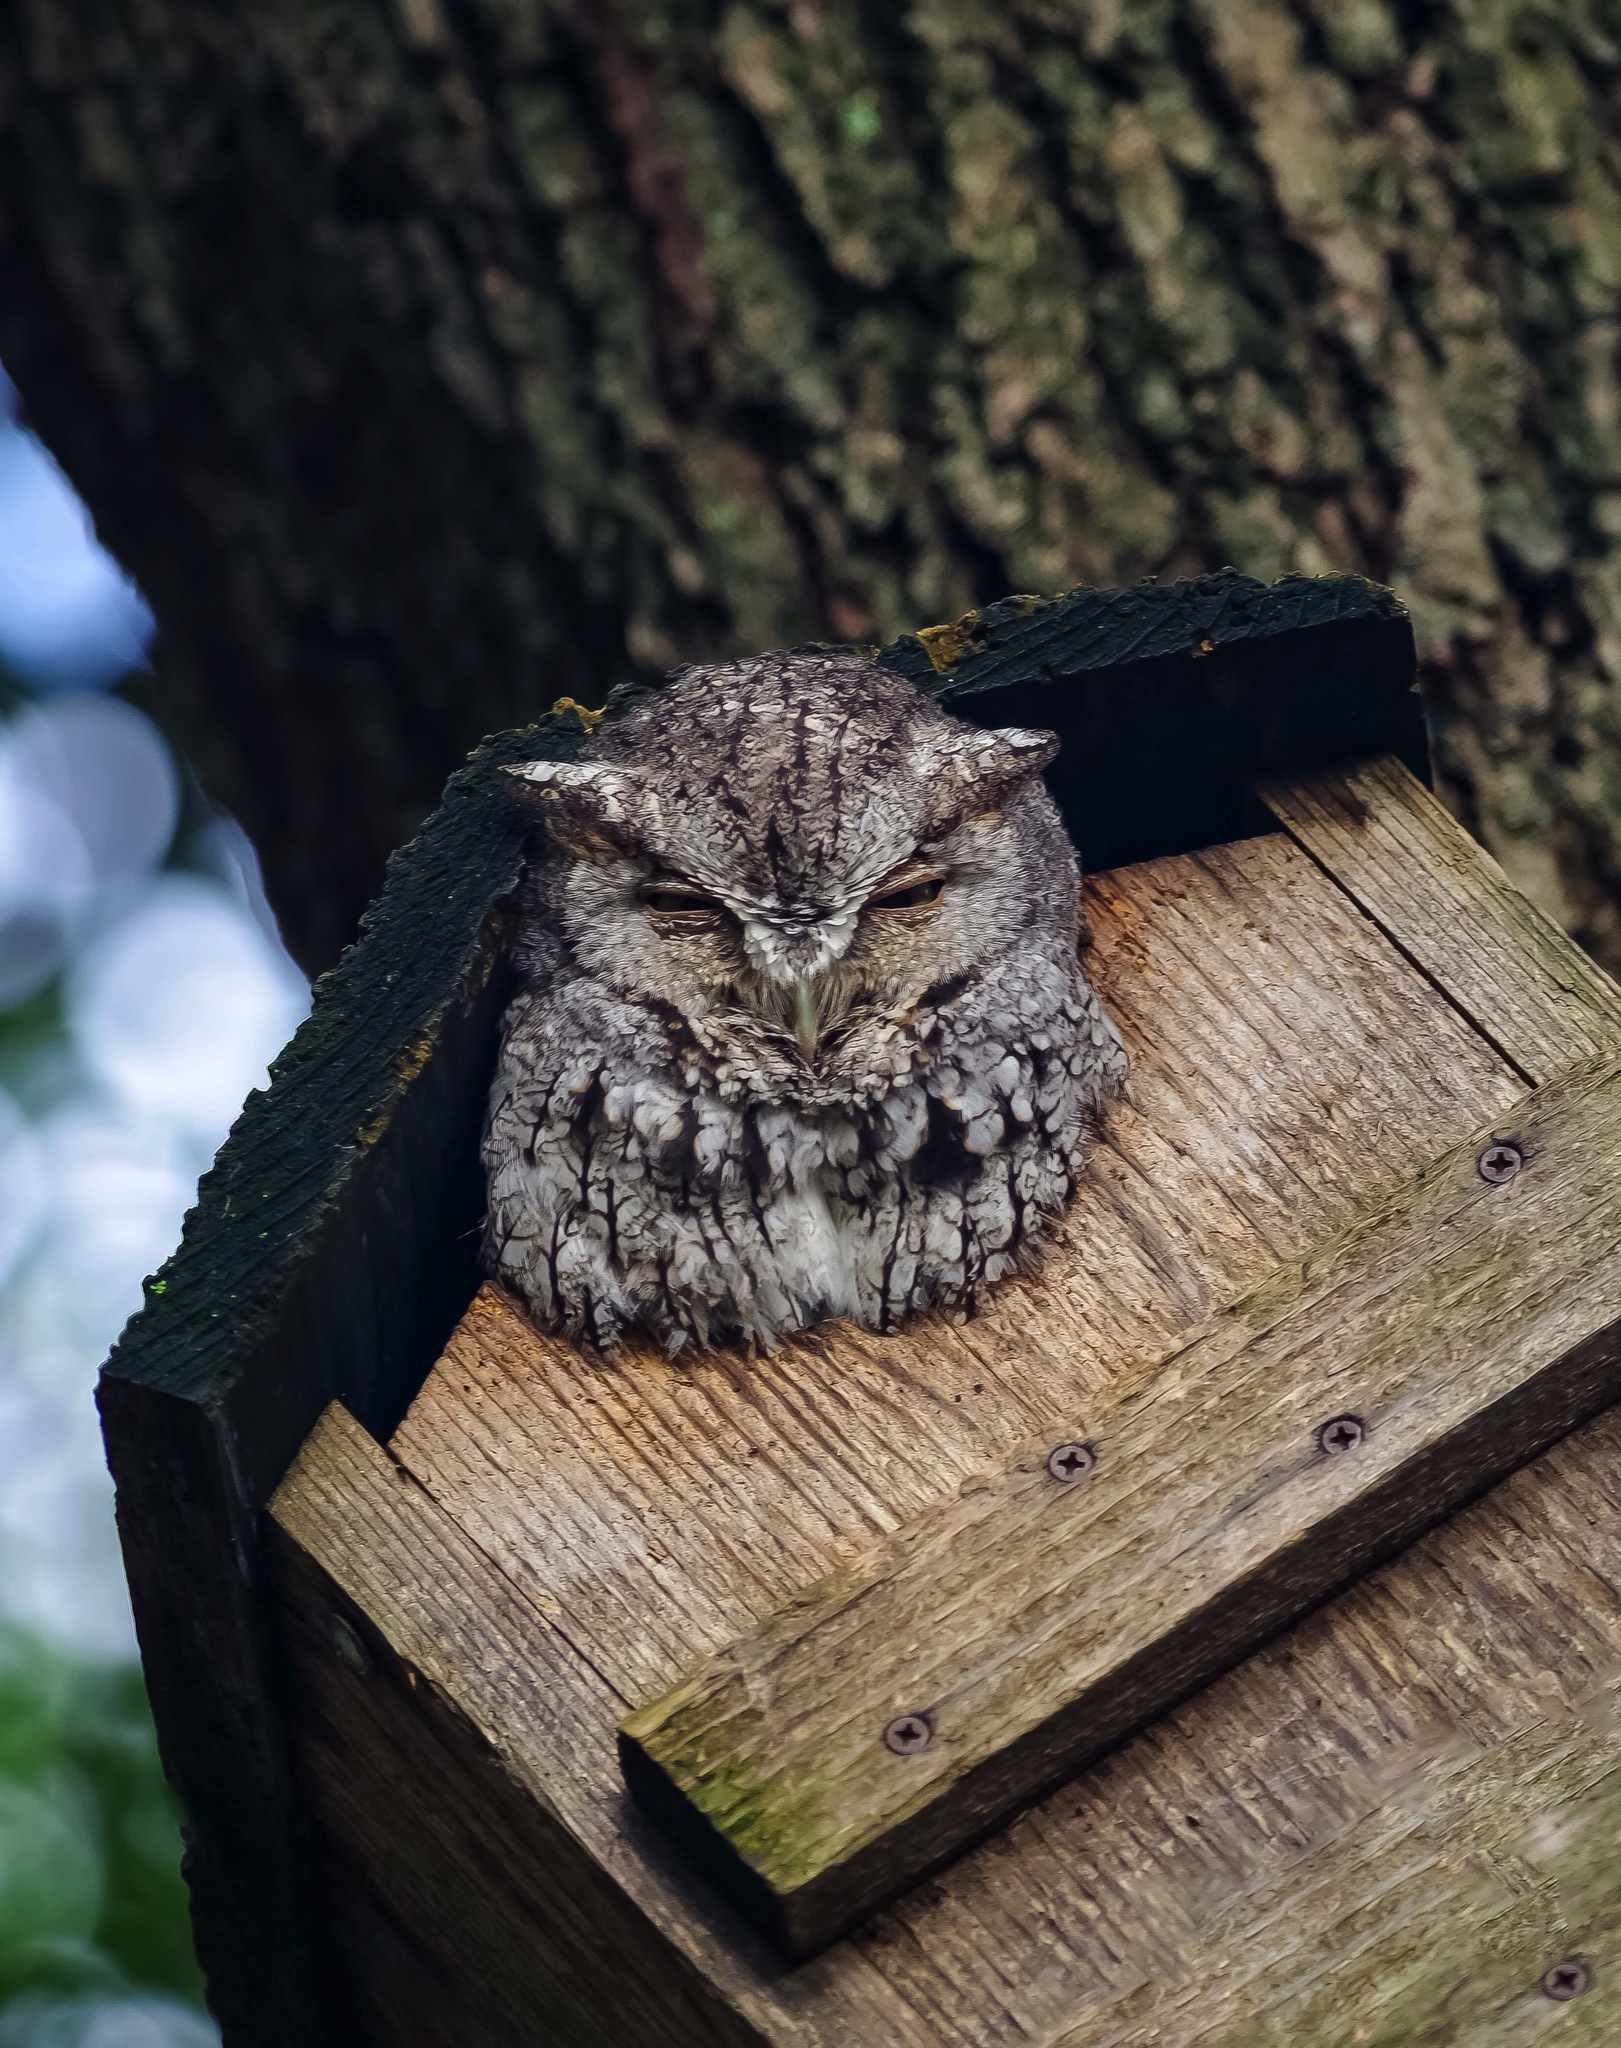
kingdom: Animalia
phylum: Chordata
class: Aves
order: Strigiformes
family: Strigidae
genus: Megascops
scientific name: Megascops asio
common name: Eastern screech-owl
